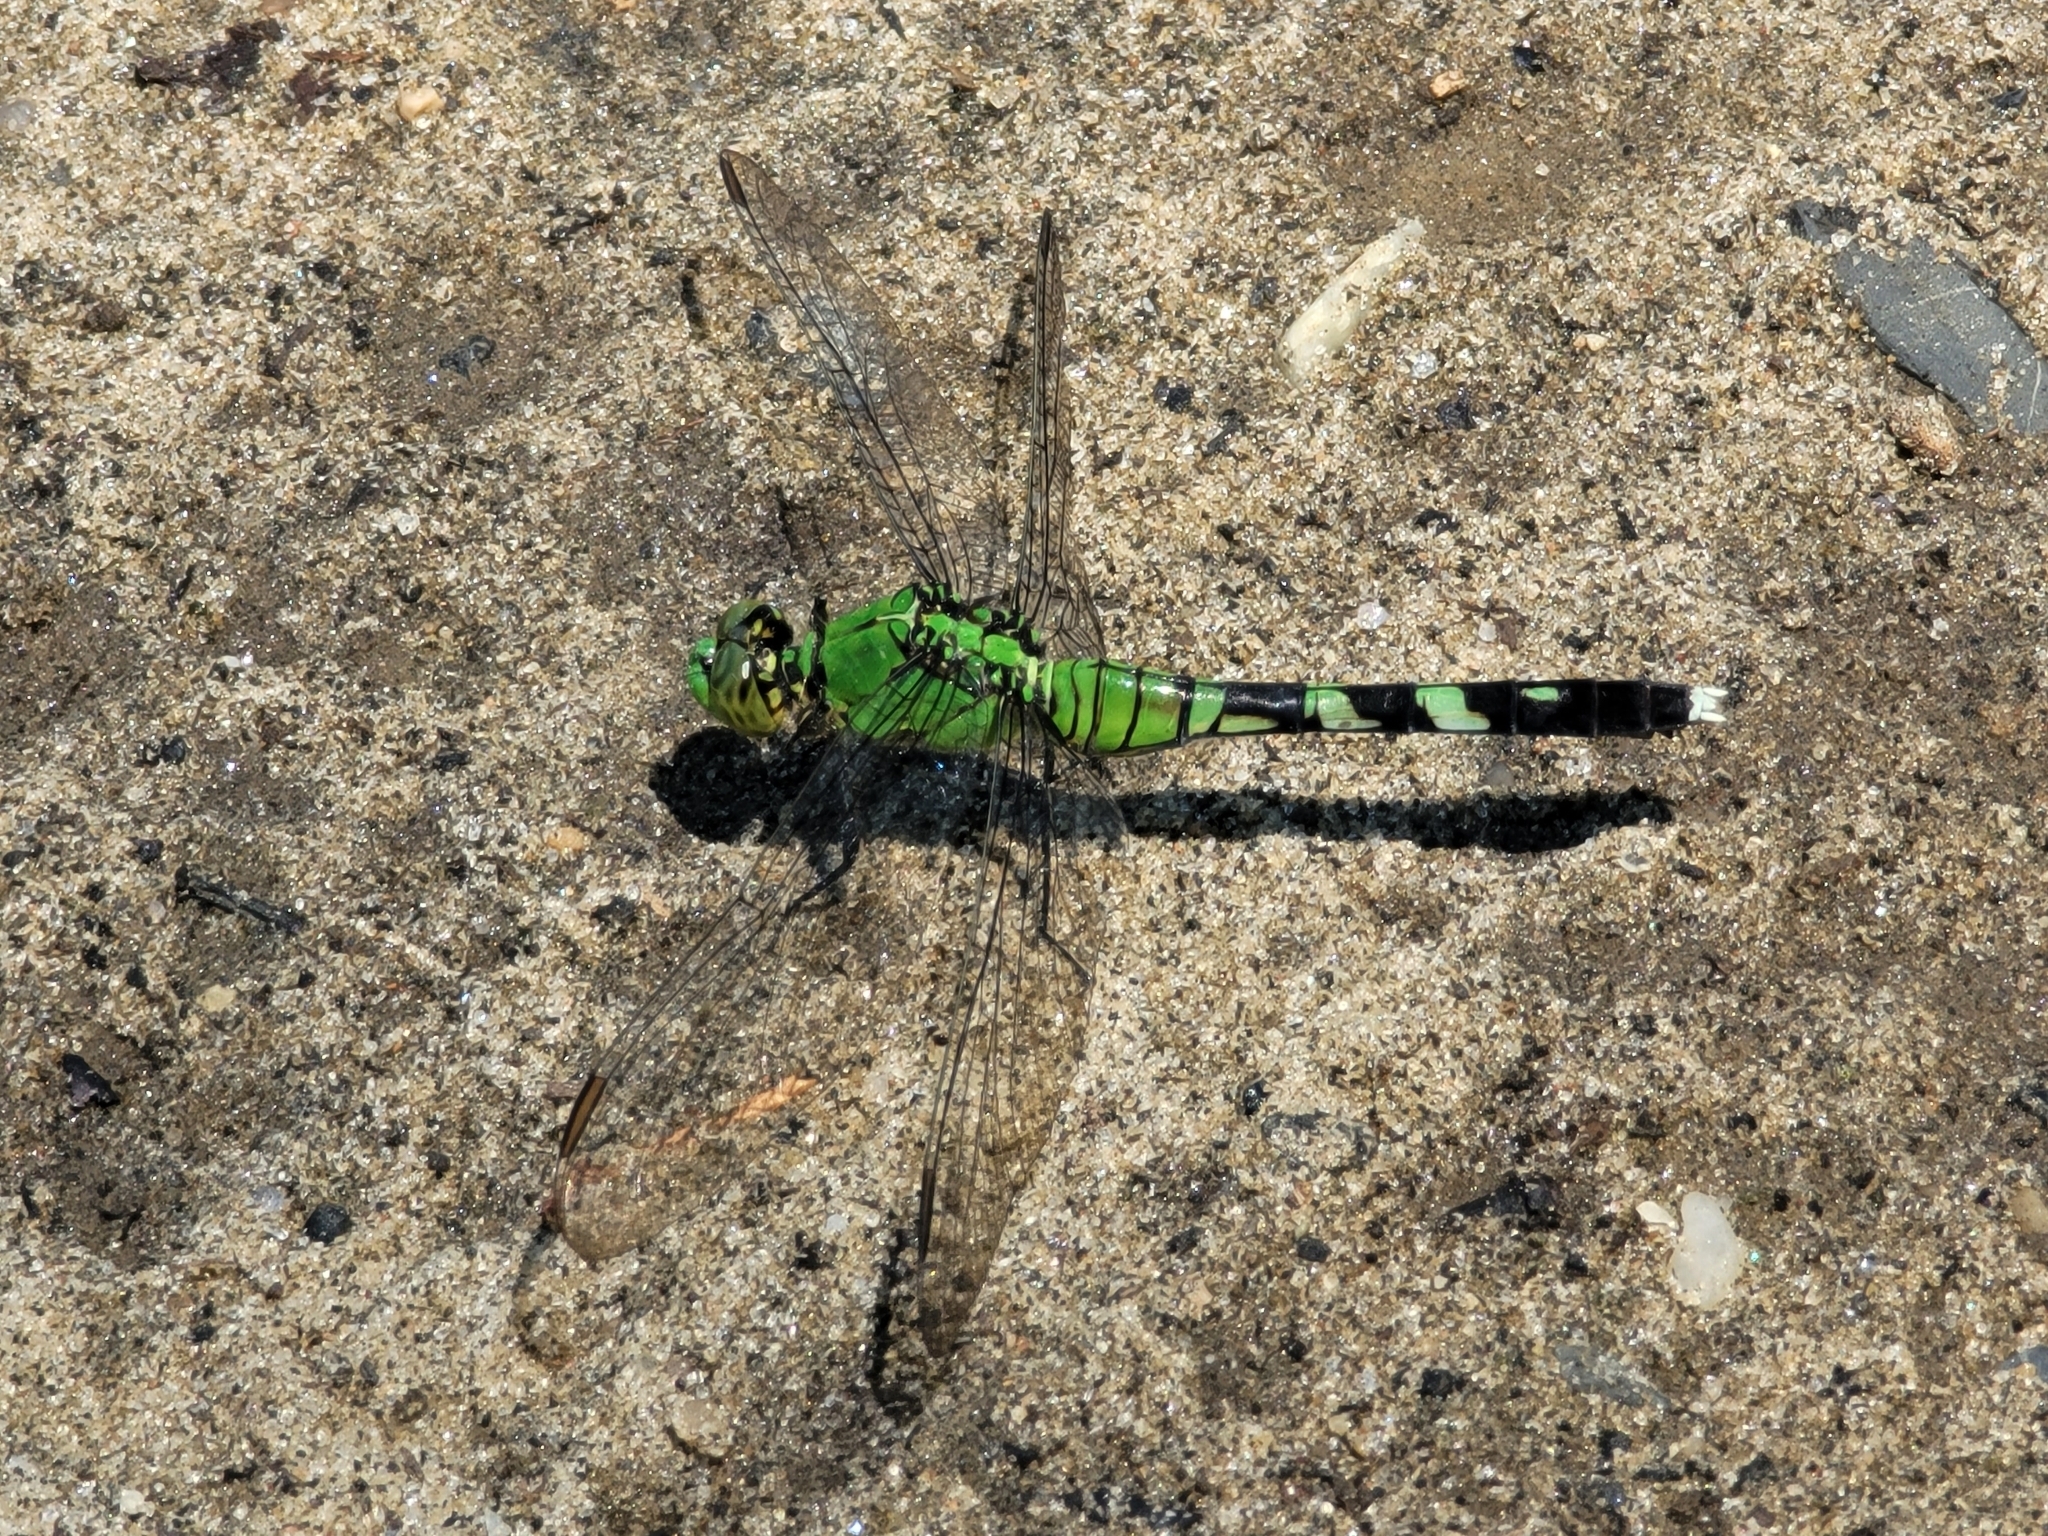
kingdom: Animalia
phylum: Arthropoda
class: Insecta
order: Odonata
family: Libellulidae
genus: Erythemis
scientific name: Erythemis simplicicollis
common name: Eastern pondhawk
